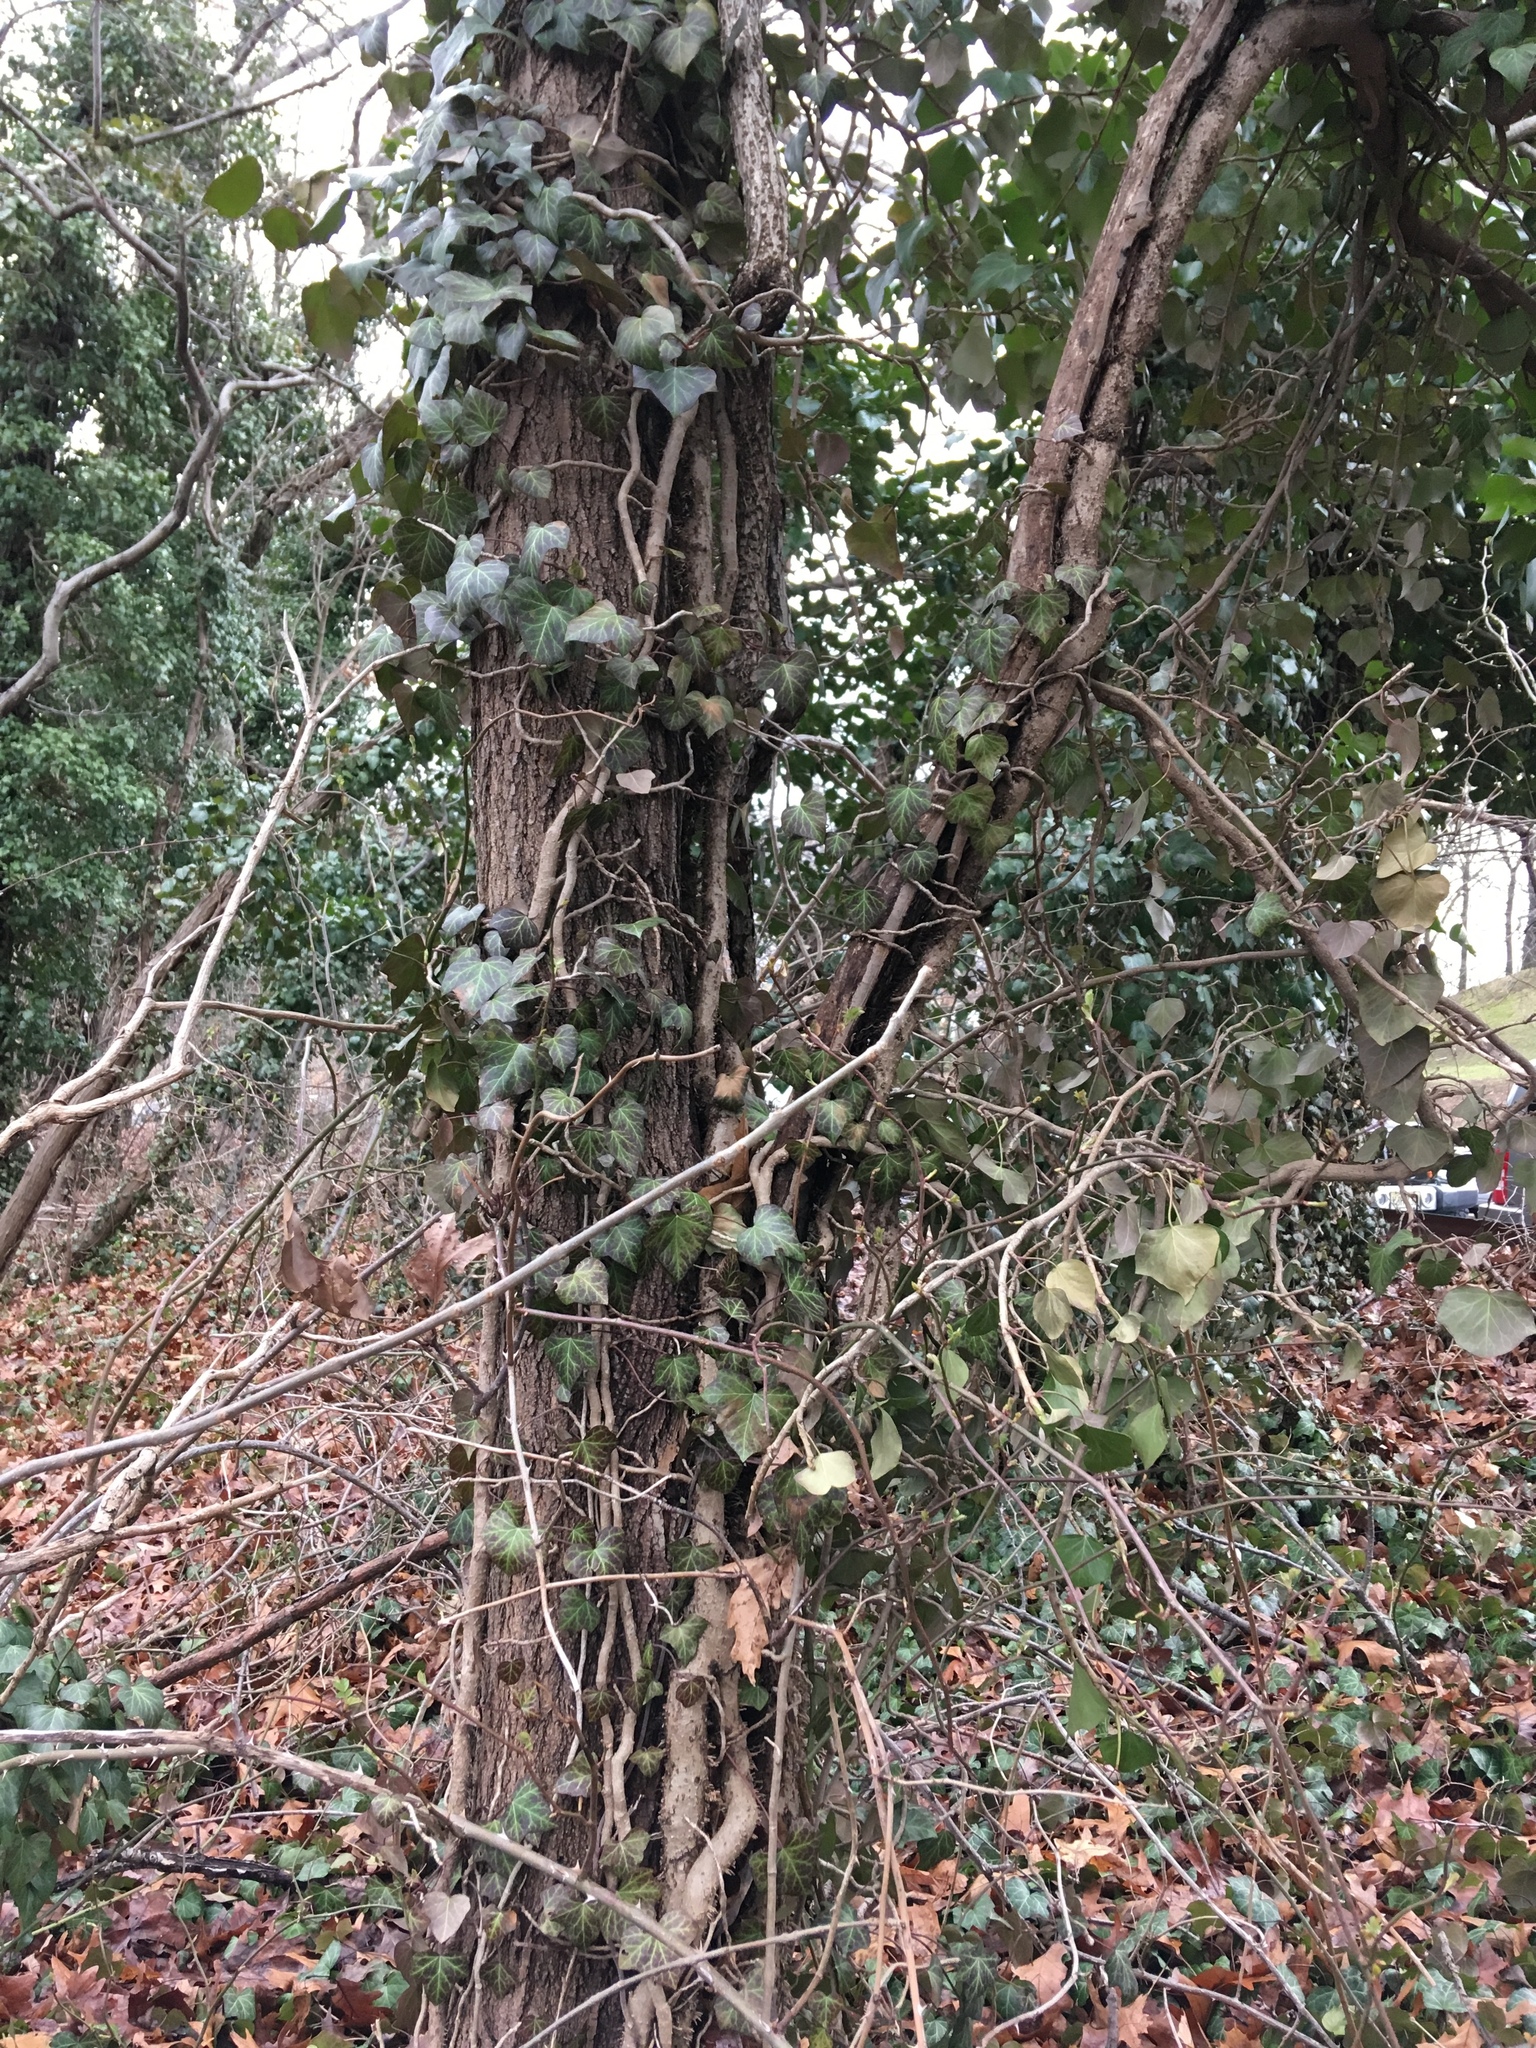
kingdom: Plantae
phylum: Tracheophyta
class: Magnoliopsida
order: Apiales
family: Araliaceae
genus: Hedera
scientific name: Hedera helix
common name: Ivy
